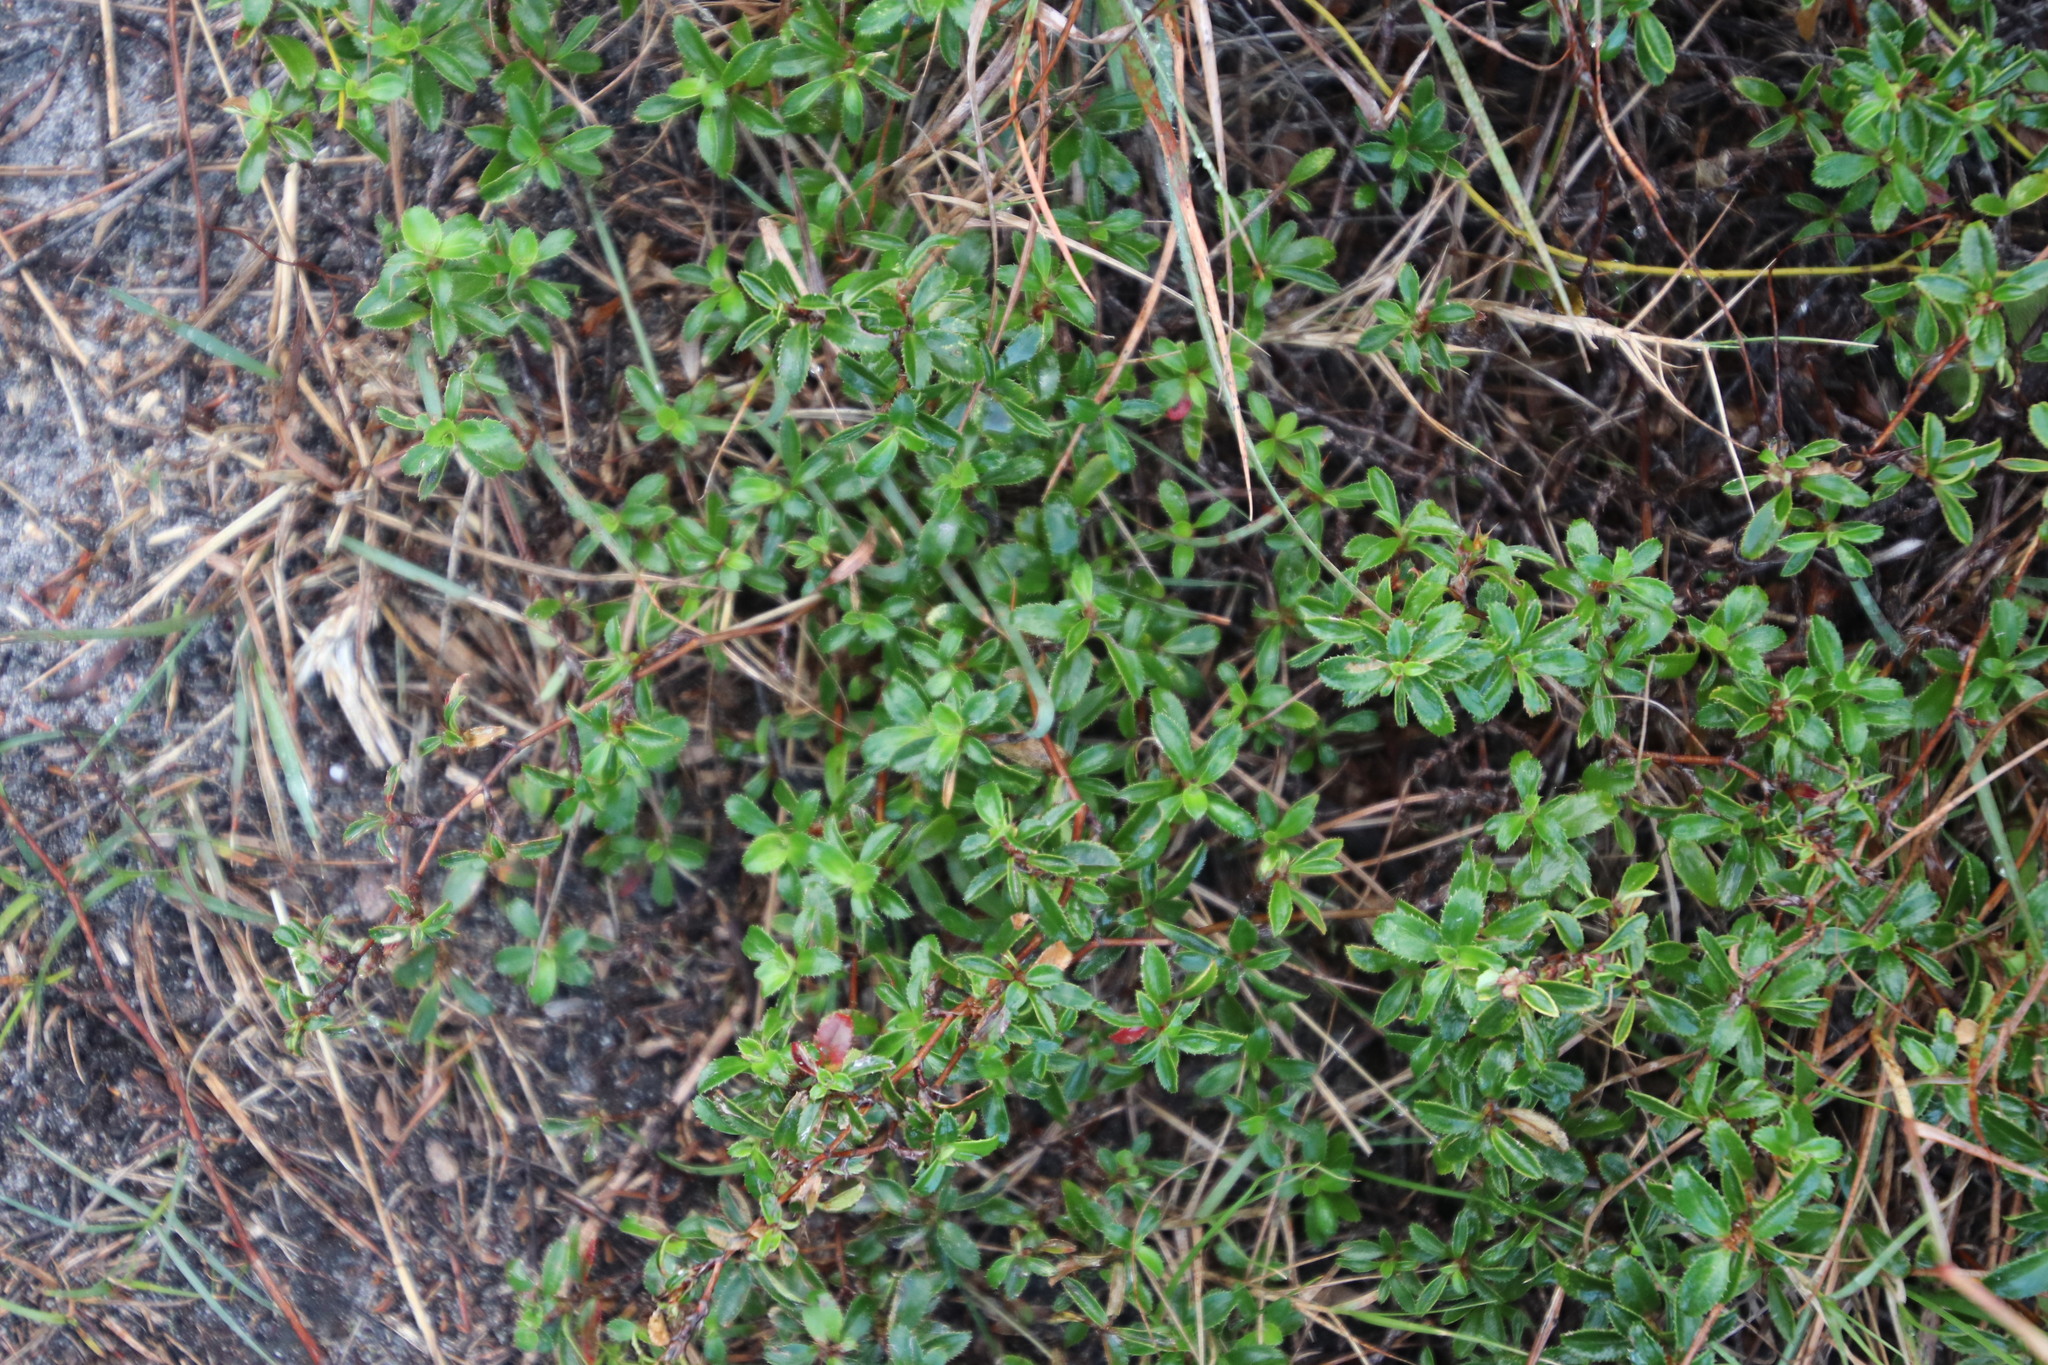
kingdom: Plantae
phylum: Tracheophyta
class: Magnoliopsida
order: Rosales
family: Rosaceae
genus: Cliffortia
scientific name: Cliffortia ferruginea
